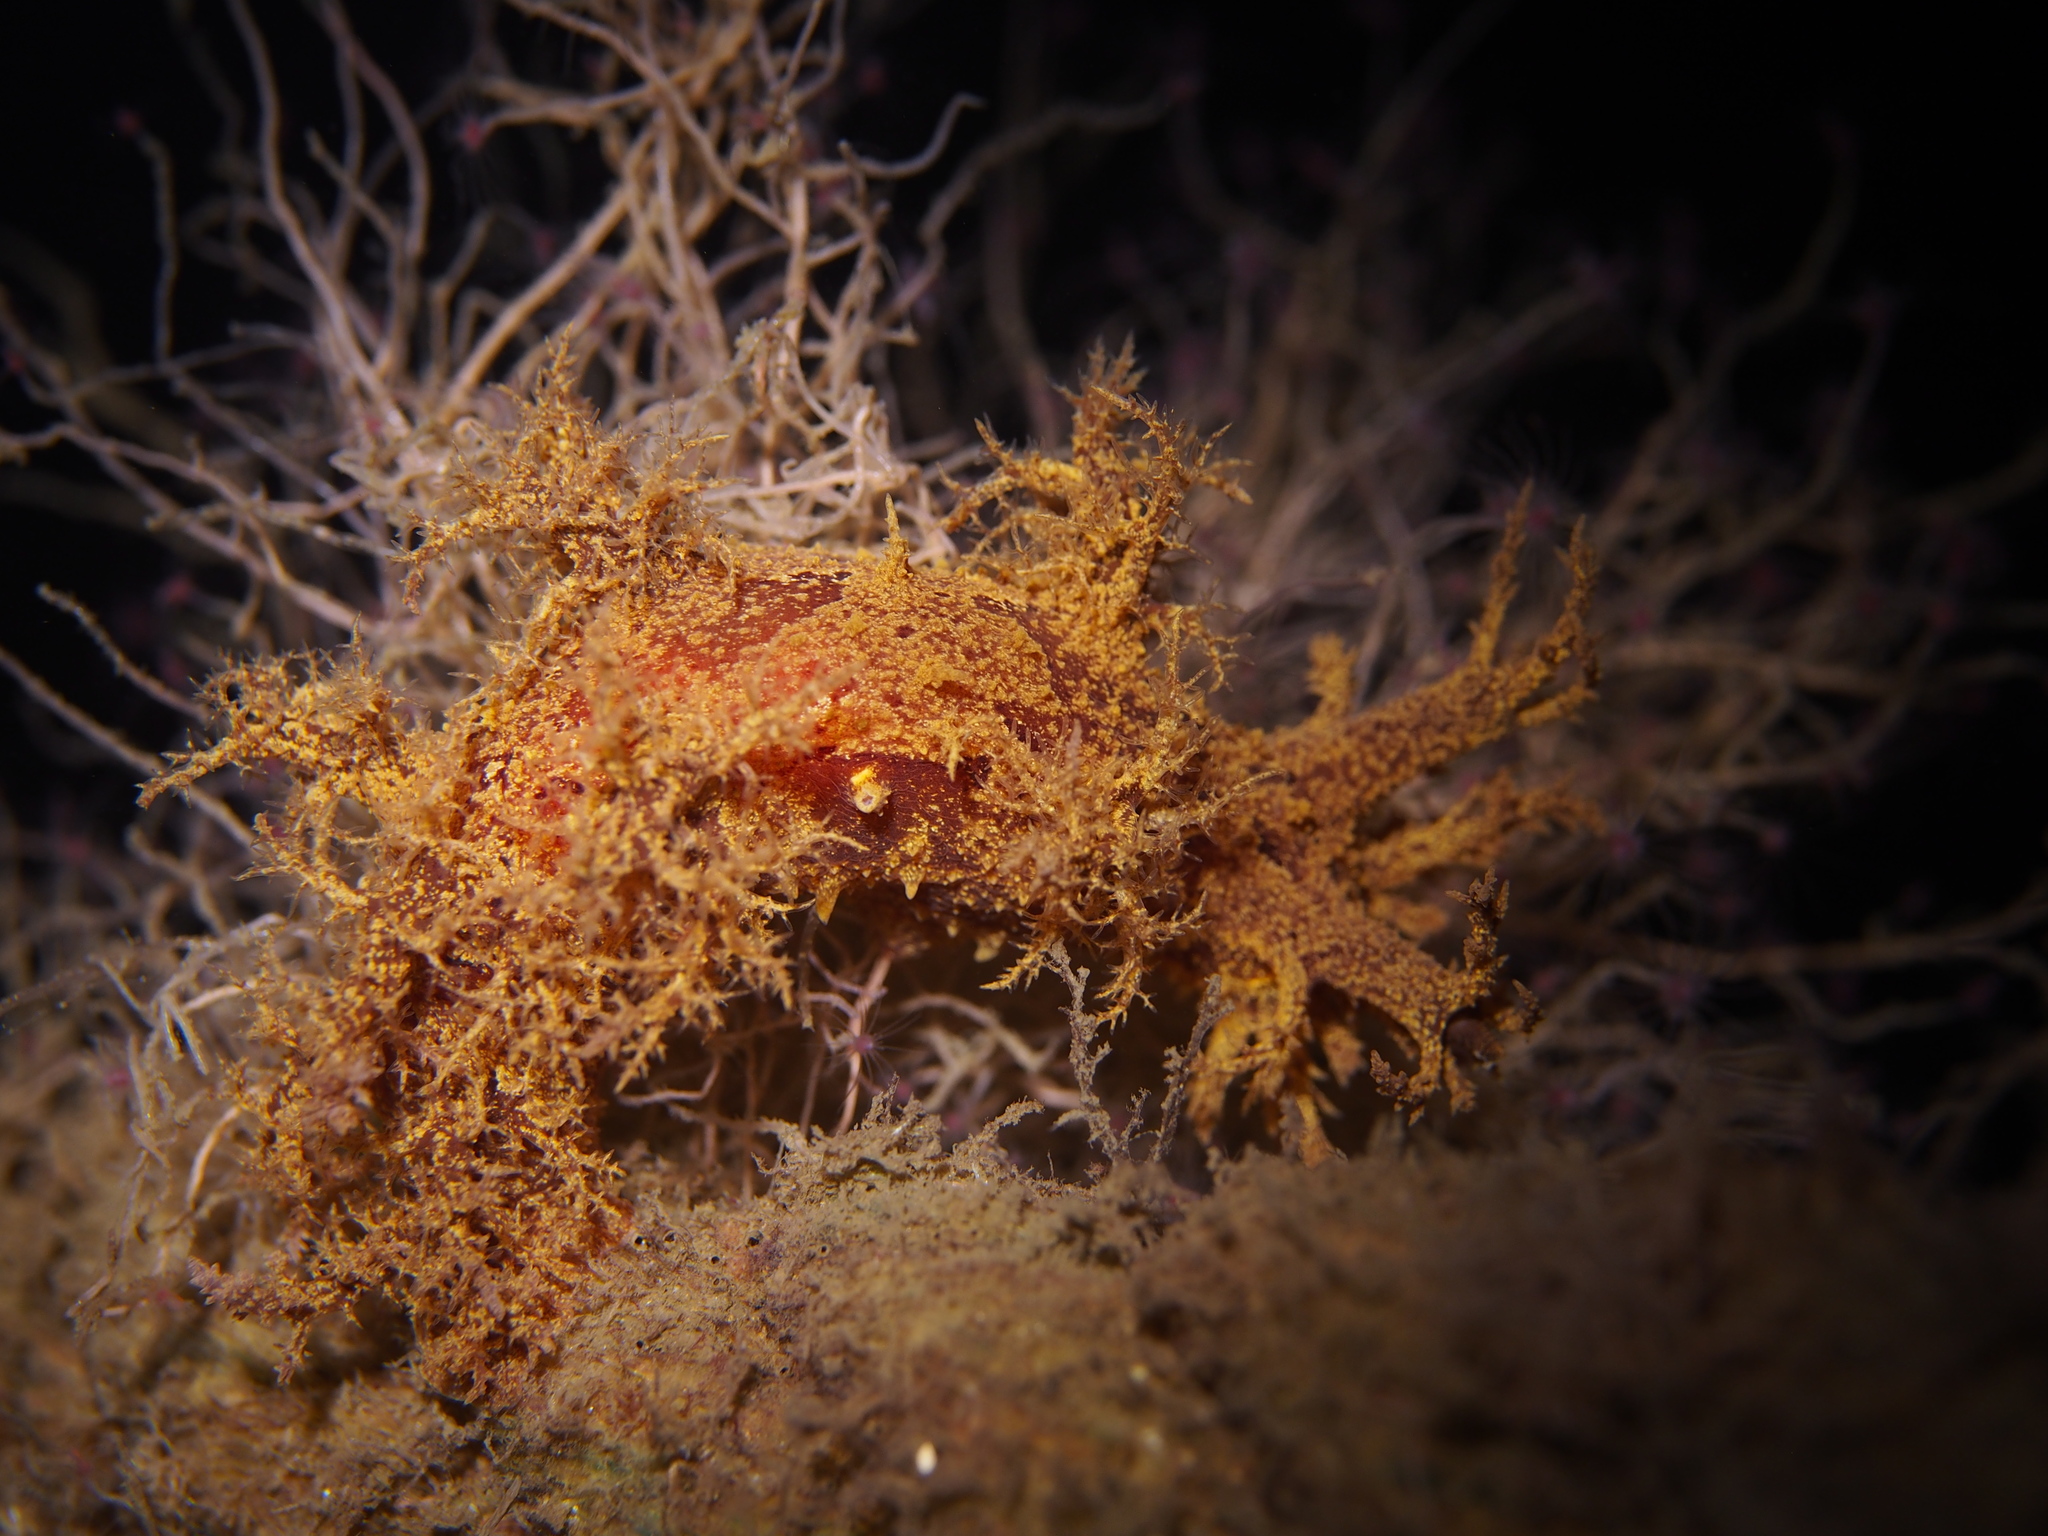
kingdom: Animalia
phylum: Mollusca
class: Gastropoda
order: Nudibranchia
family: Dendronotidae
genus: Dendronotus
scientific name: Dendronotus europaeus
